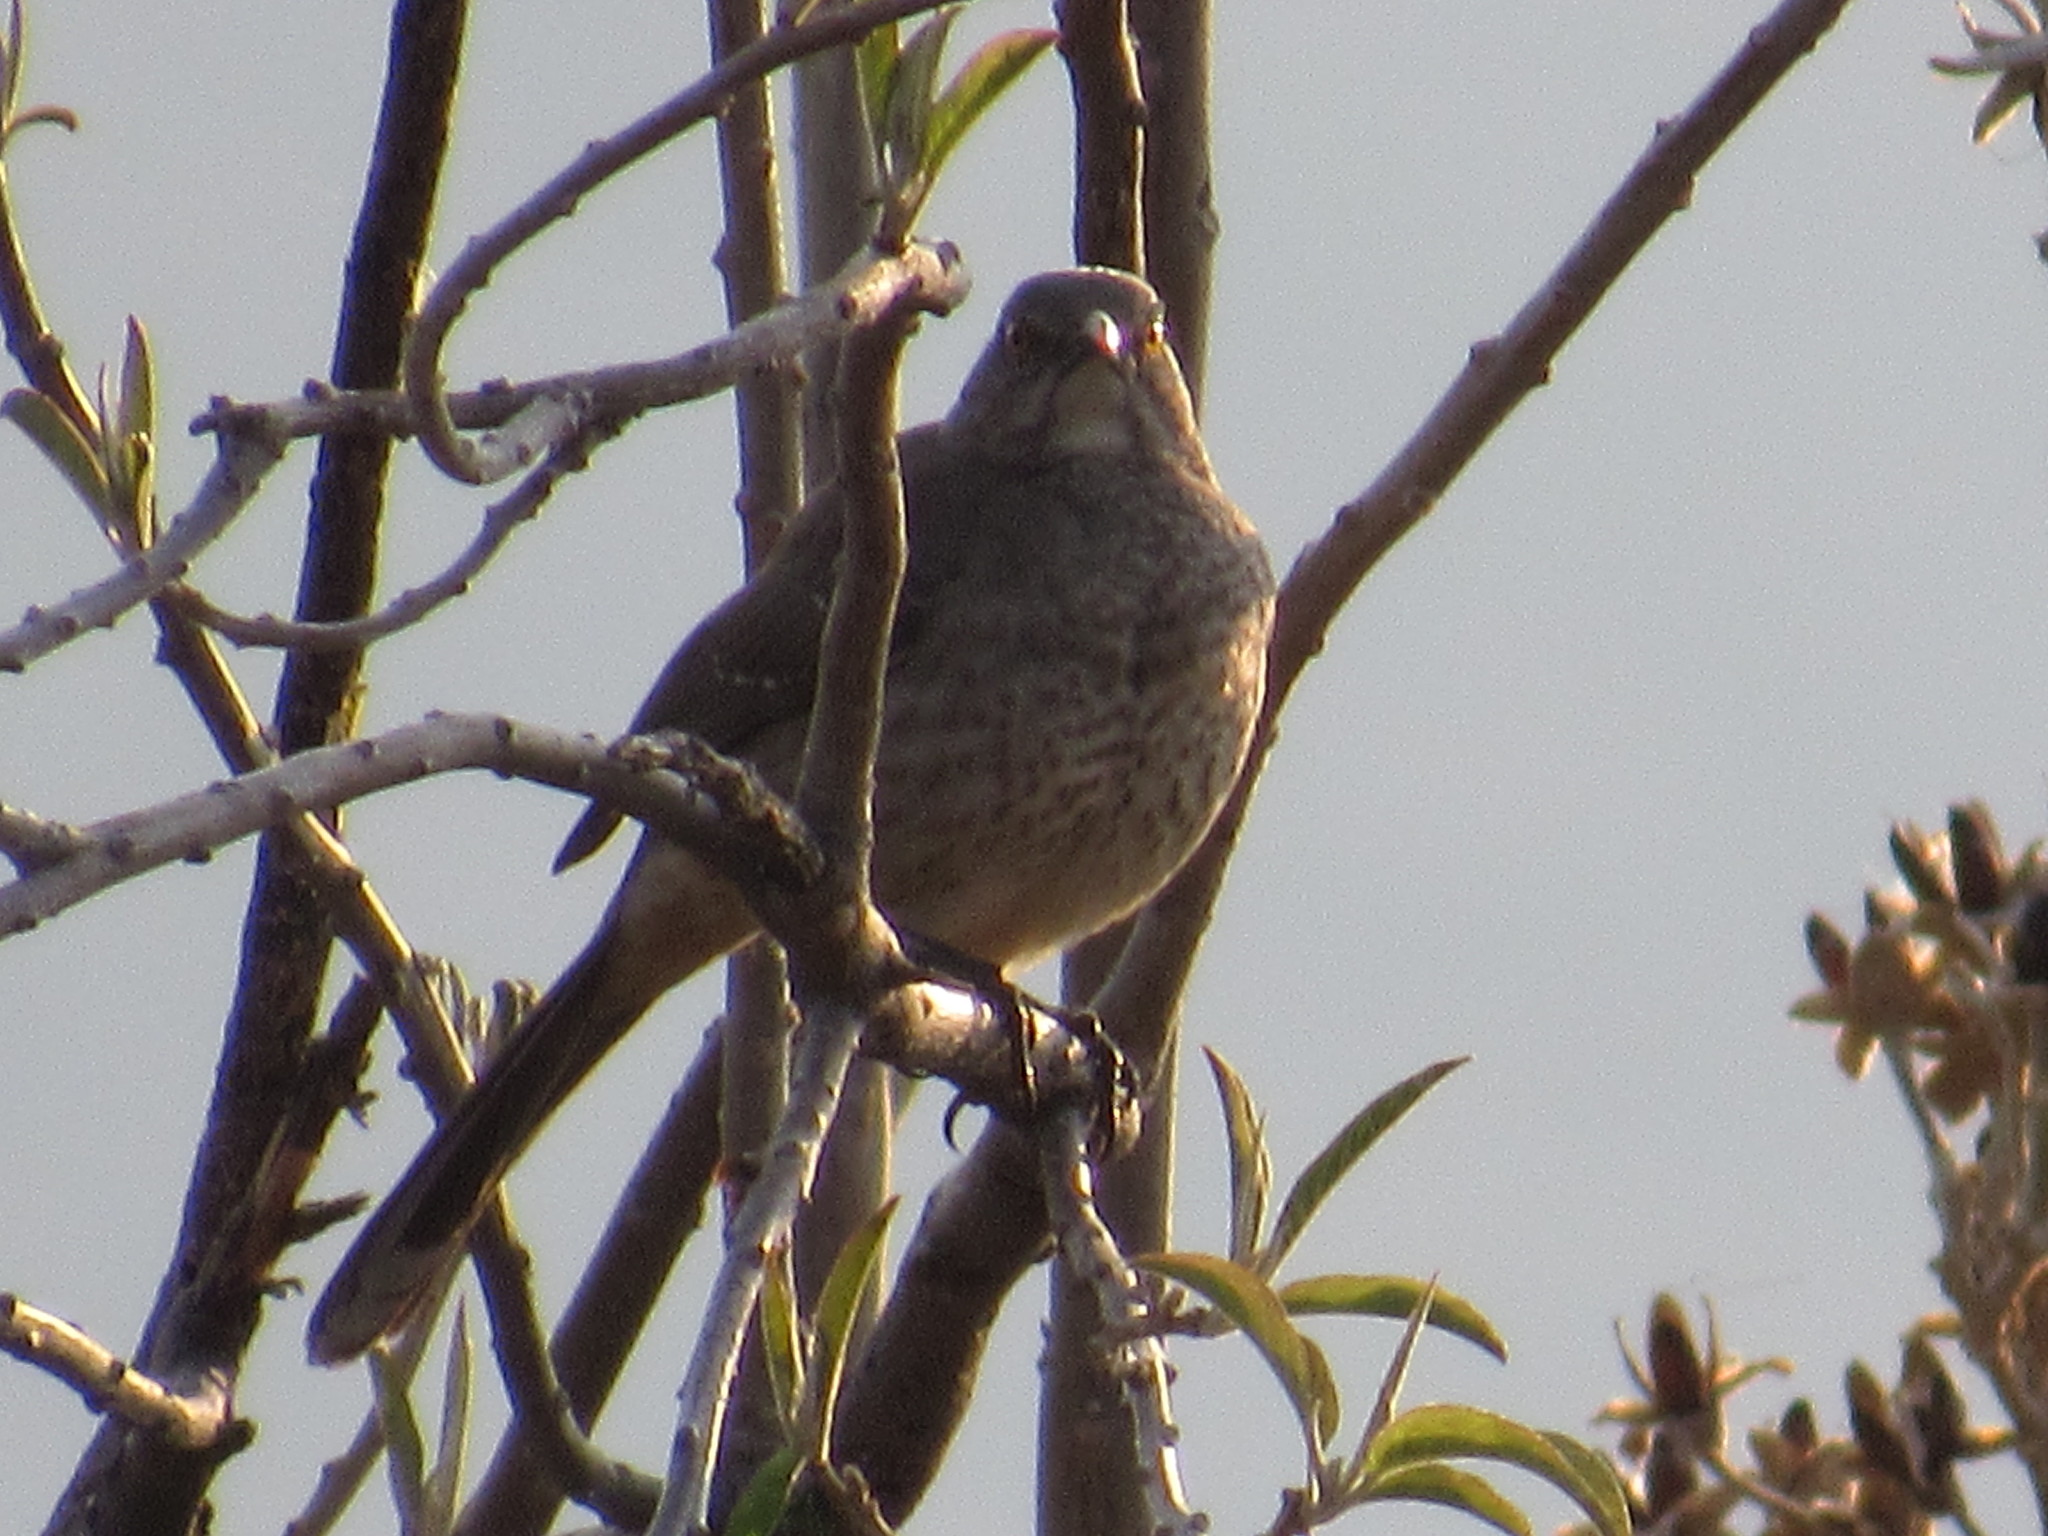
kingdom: Animalia
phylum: Chordata
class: Aves
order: Passeriformes
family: Mimidae
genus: Toxostoma
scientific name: Toxostoma curvirostre
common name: Curve-billed thrasher
